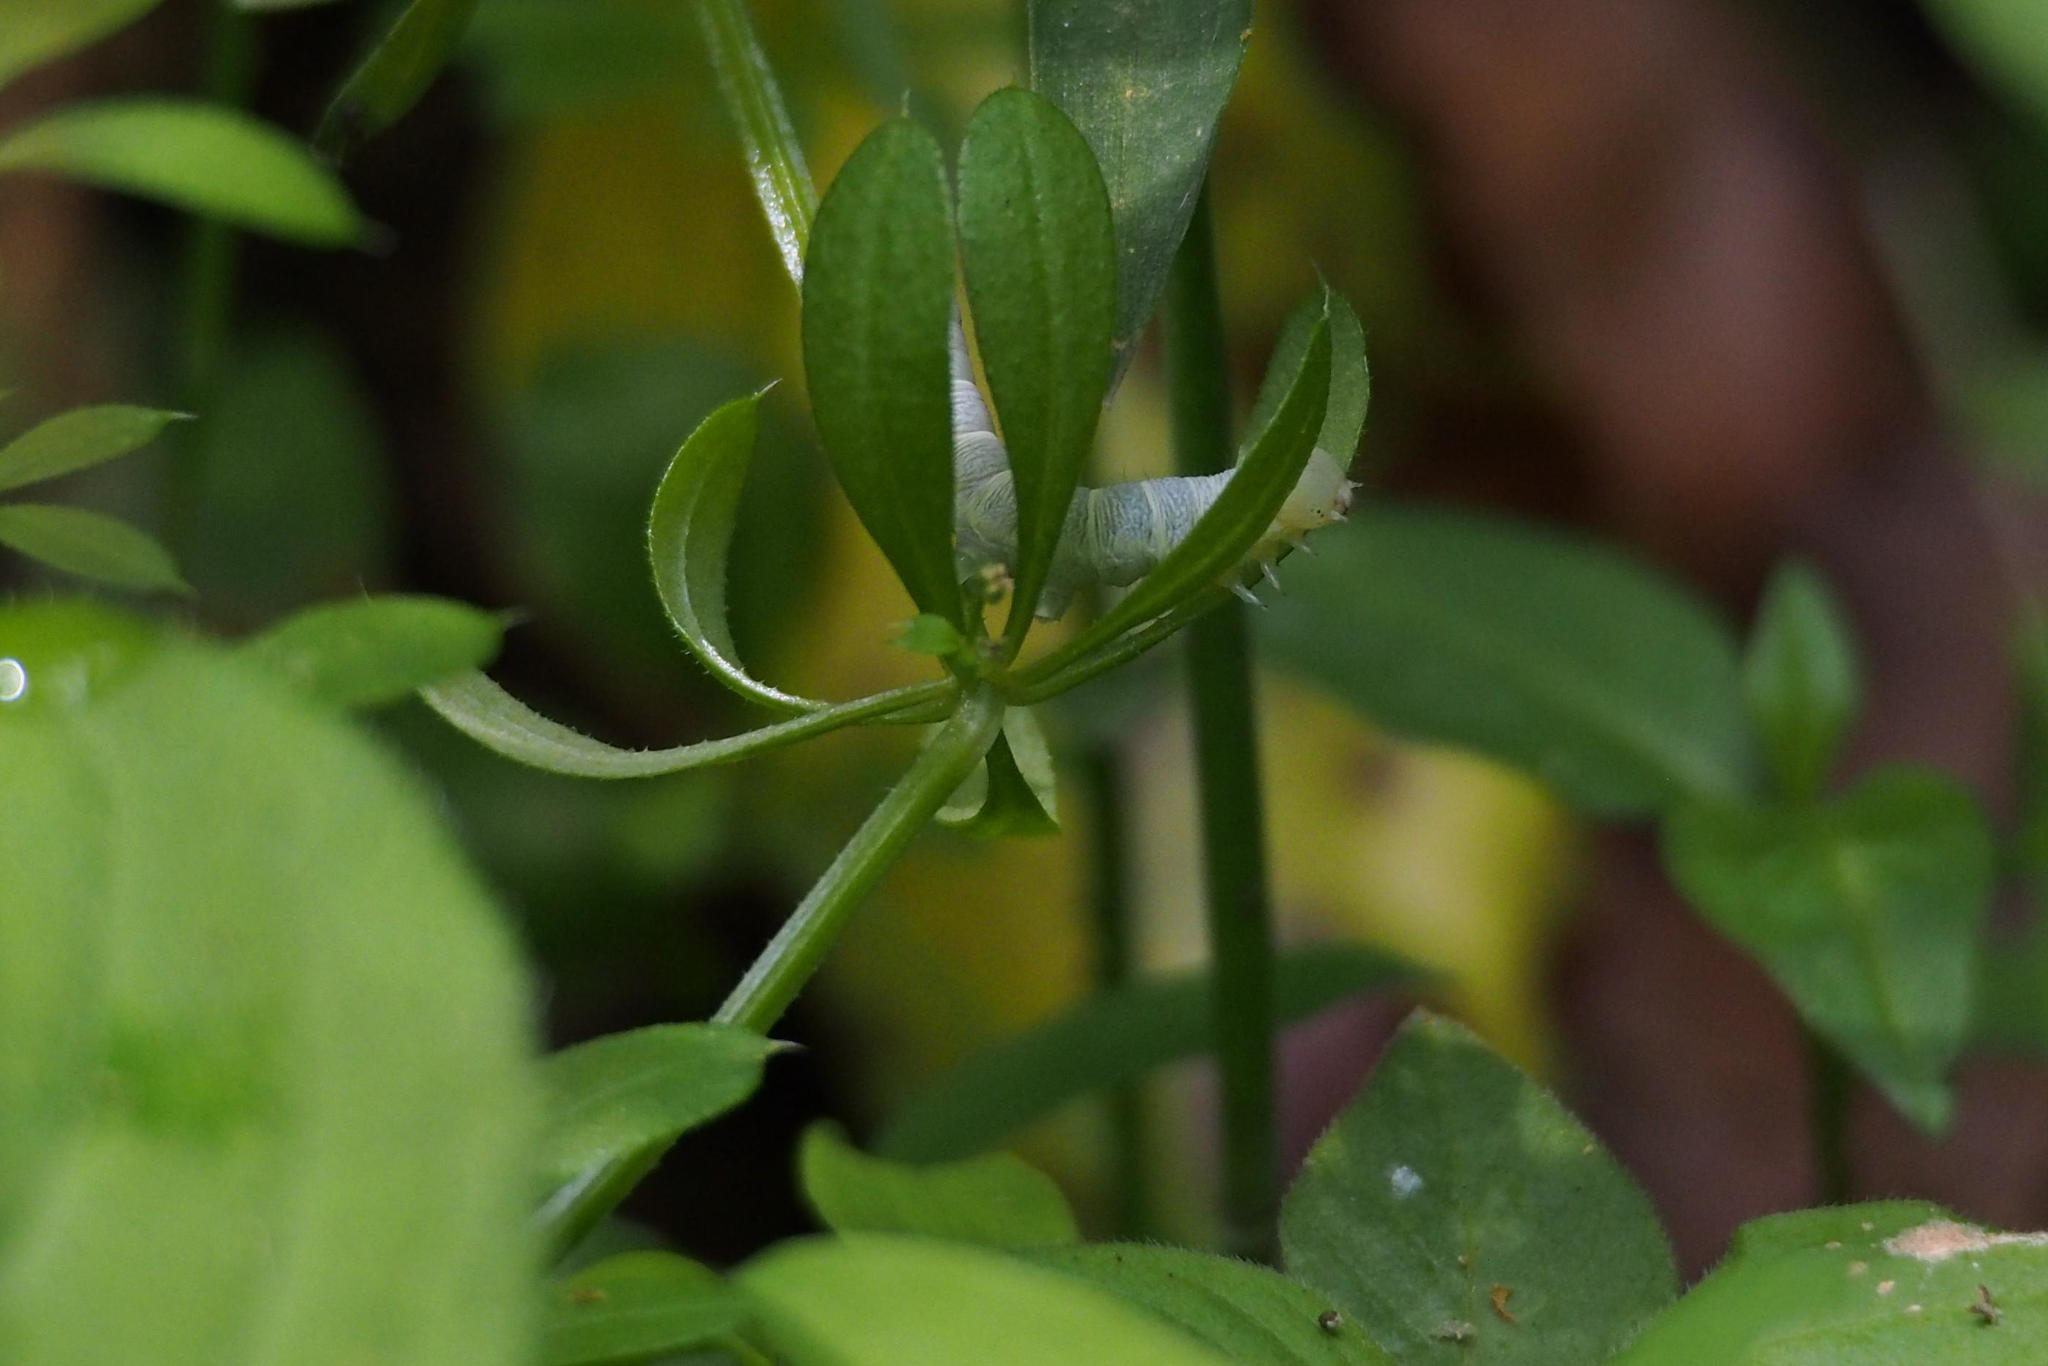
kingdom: Animalia
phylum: Arthropoda
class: Insecta
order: Lepidoptera
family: Noctuidae
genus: Orthosia
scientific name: Orthosia odiosa
